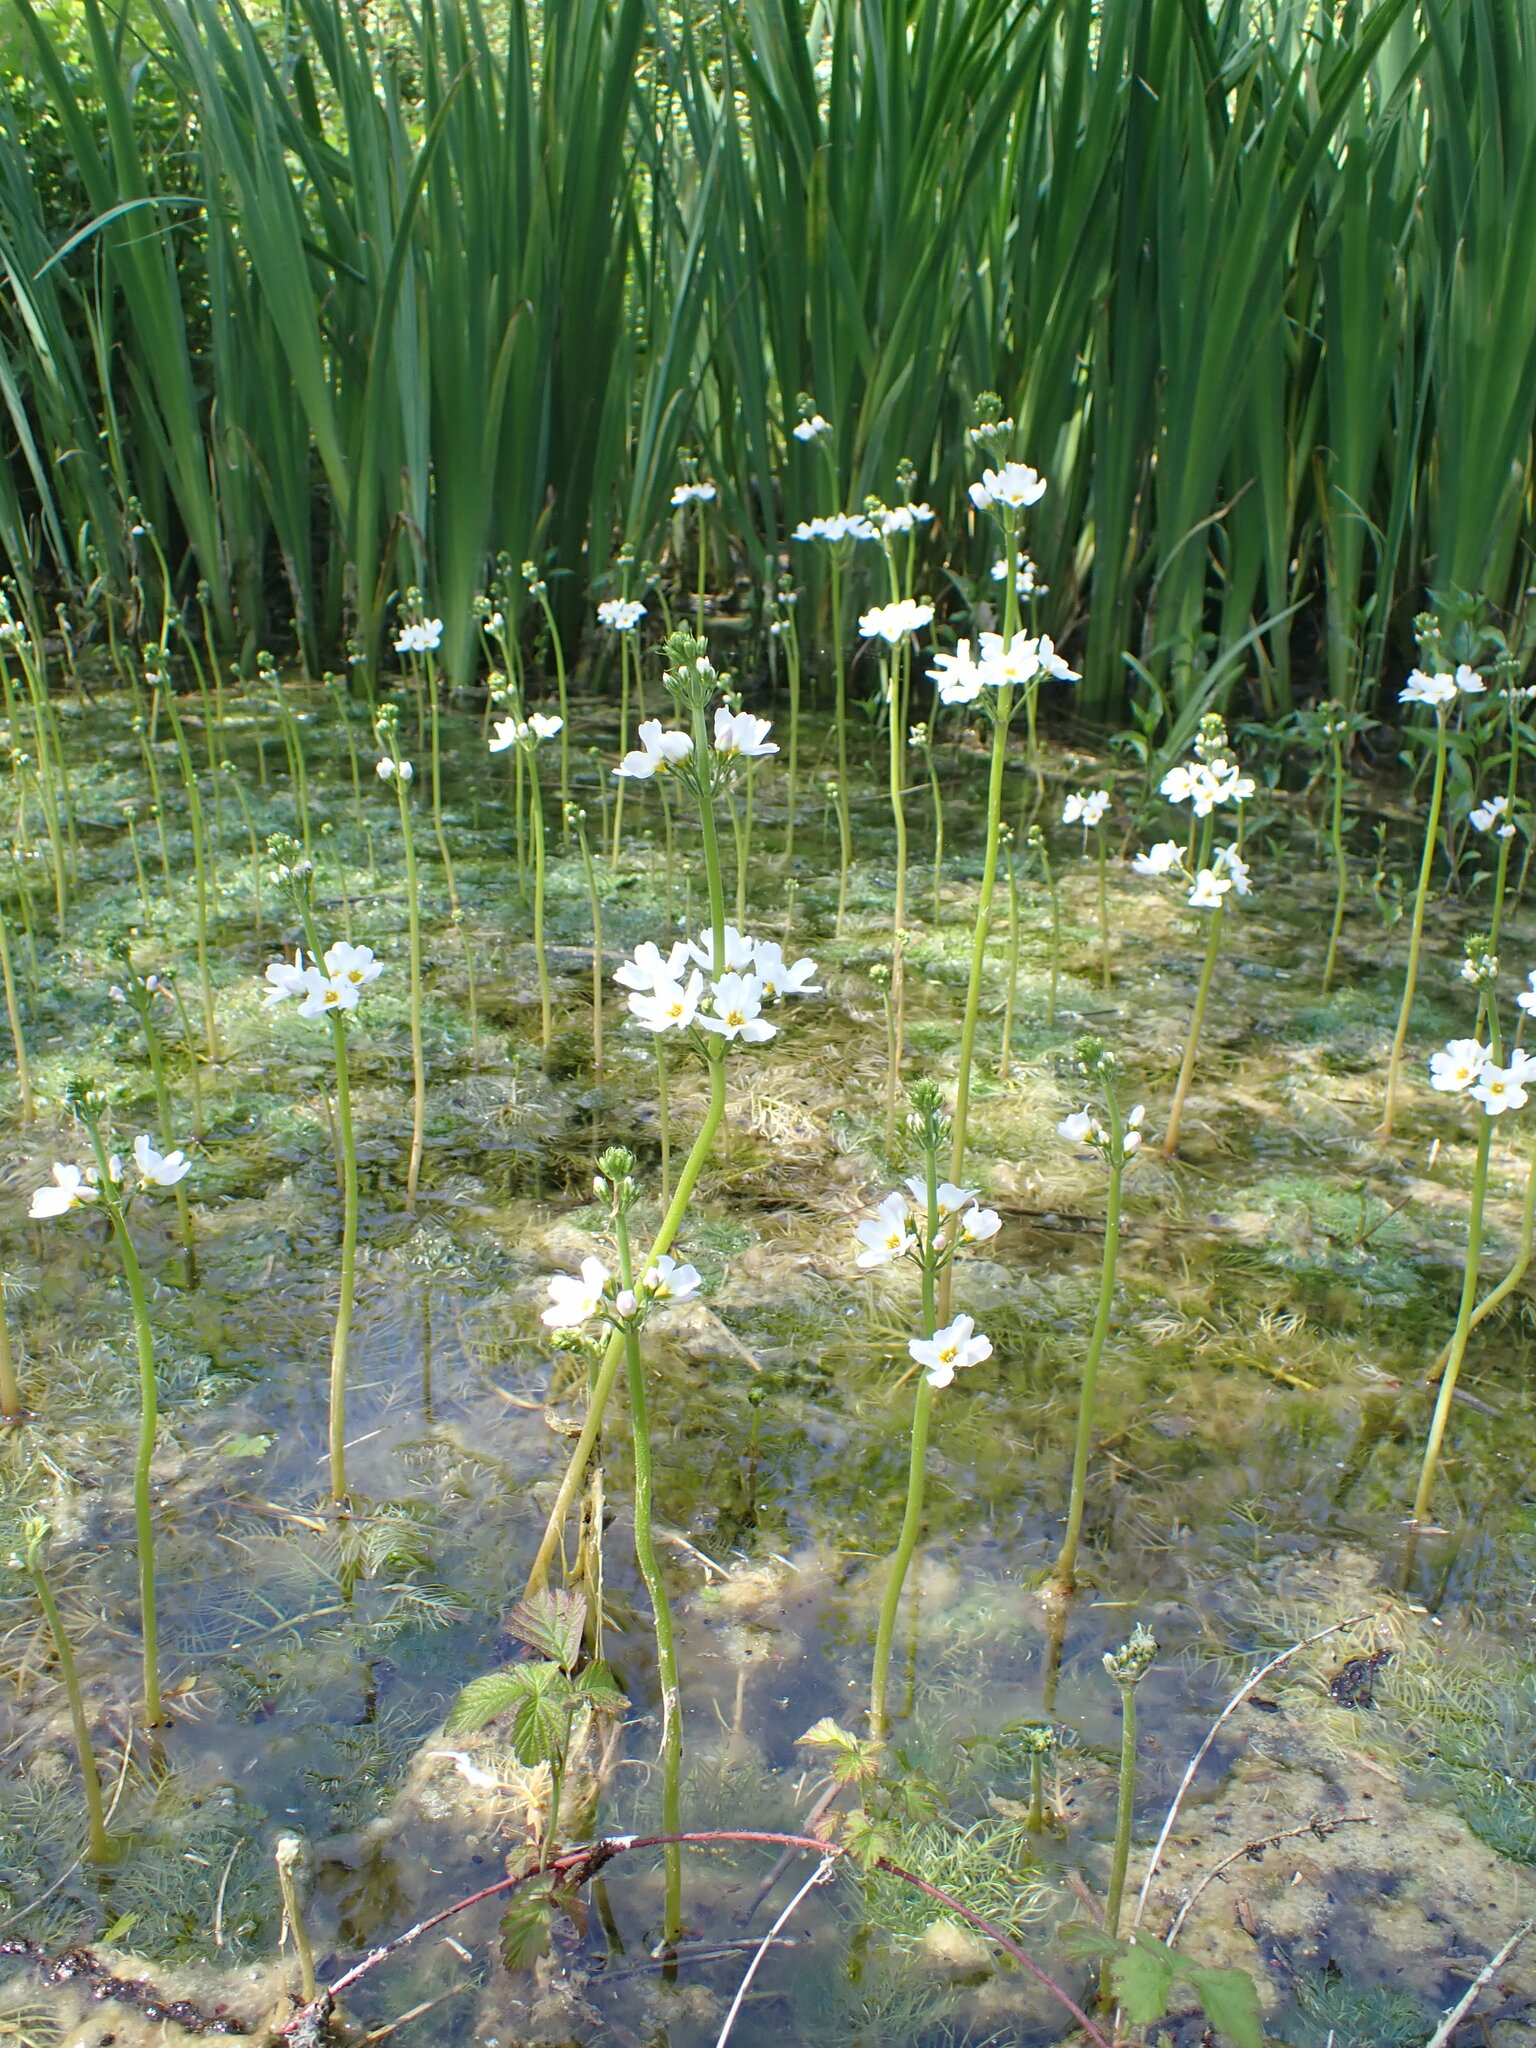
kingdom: Plantae
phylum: Tracheophyta
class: Magnoliopsida
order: Ericales
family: Primulaceae
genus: Hottonia
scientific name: Hottonia palustris
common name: Water-violet
